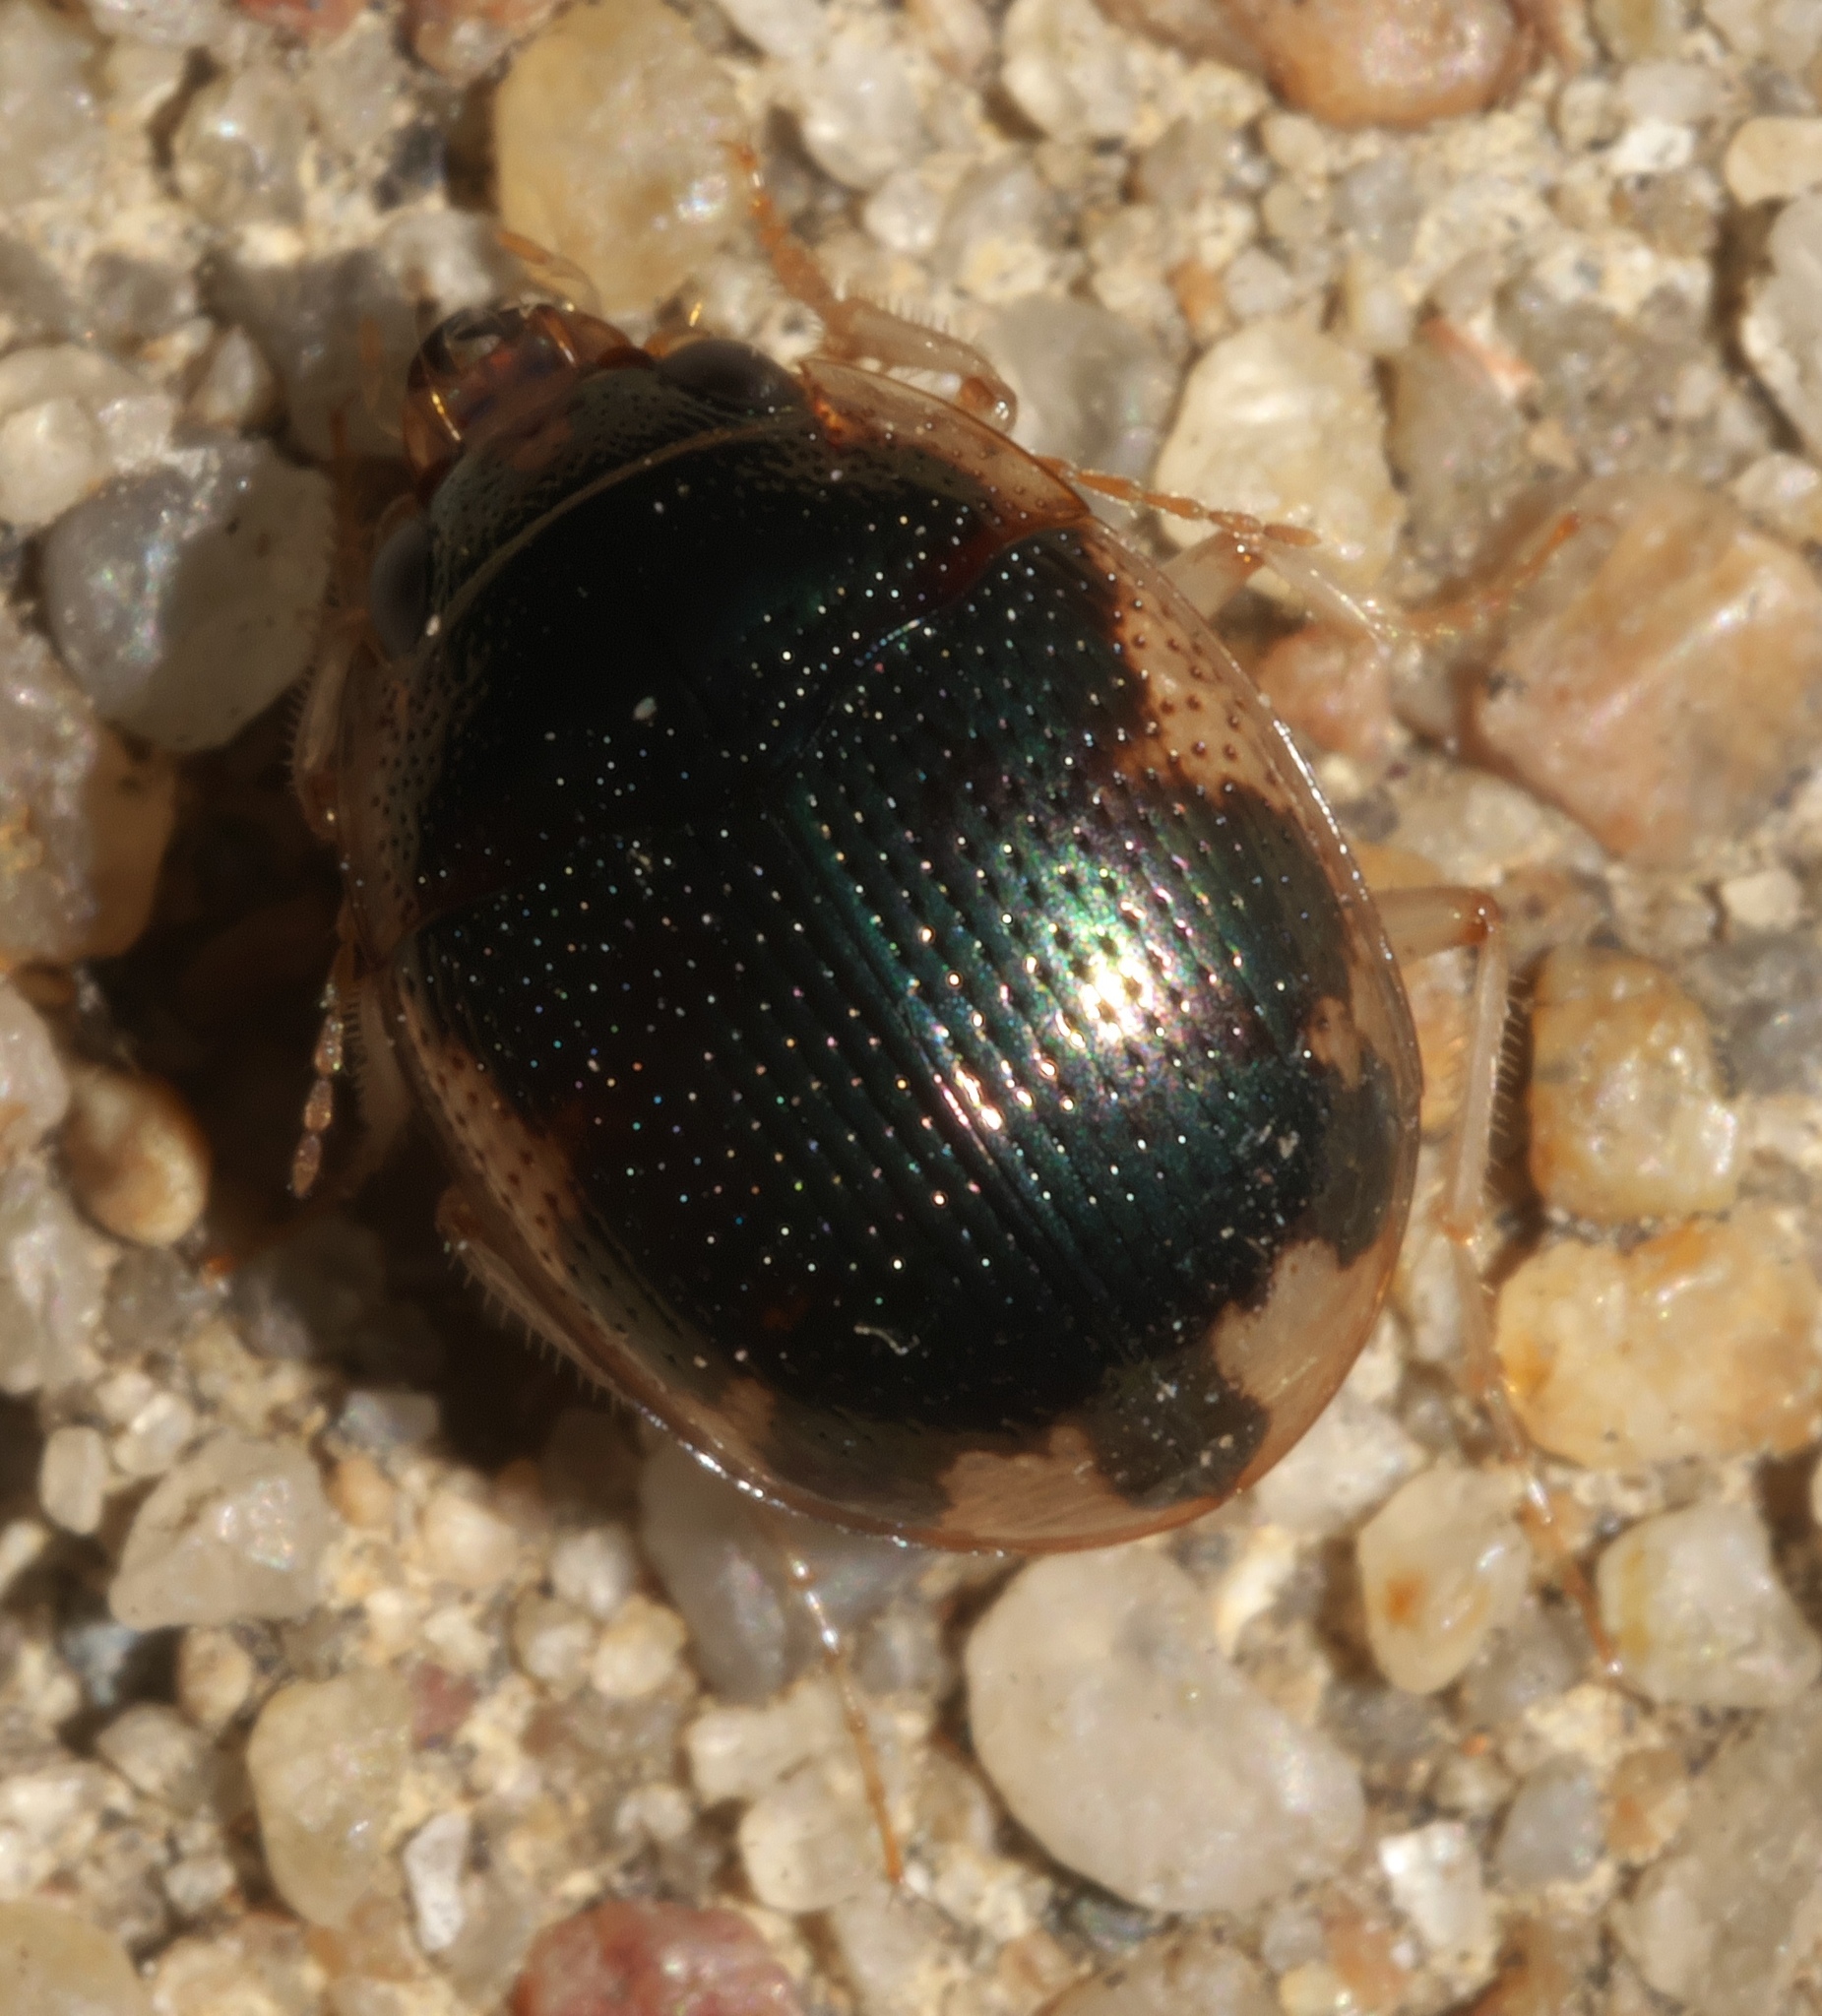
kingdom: Animalia
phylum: Arthropoda
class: Insecta
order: Coleoptera
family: Carabidae
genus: Omophron
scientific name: Omophron nitidum
